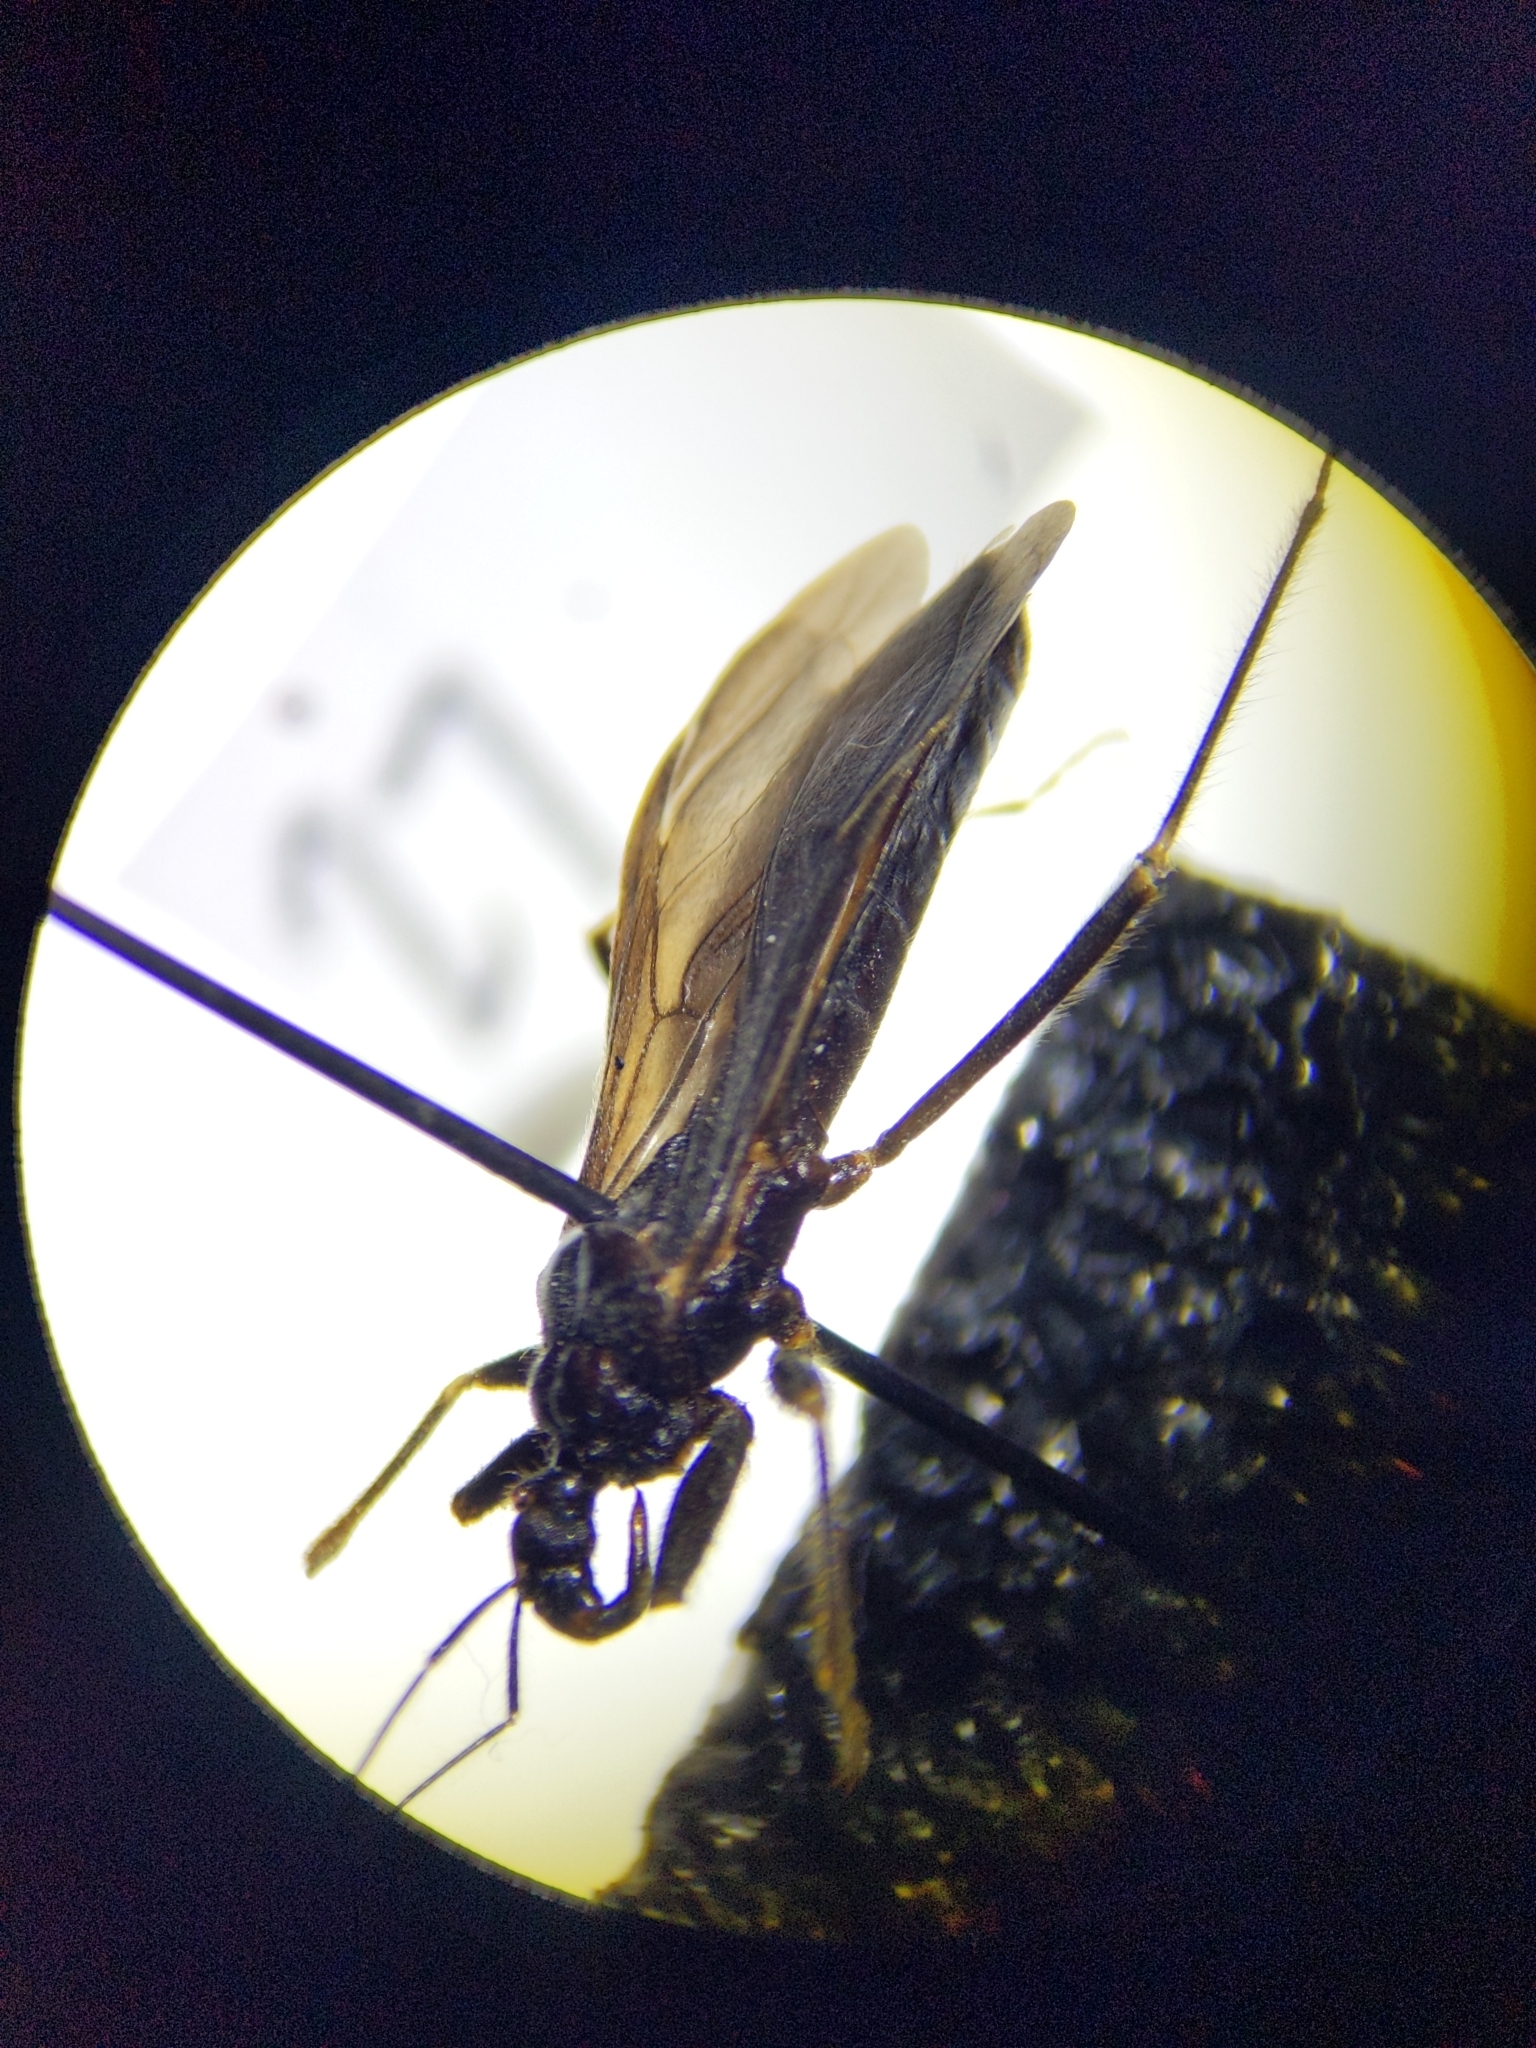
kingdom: Animalia
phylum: Arthropoda
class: Insecta
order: Hemiptera
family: Reduviidae
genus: Reduvius
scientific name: Reduvius personatus
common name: Masked hunter
